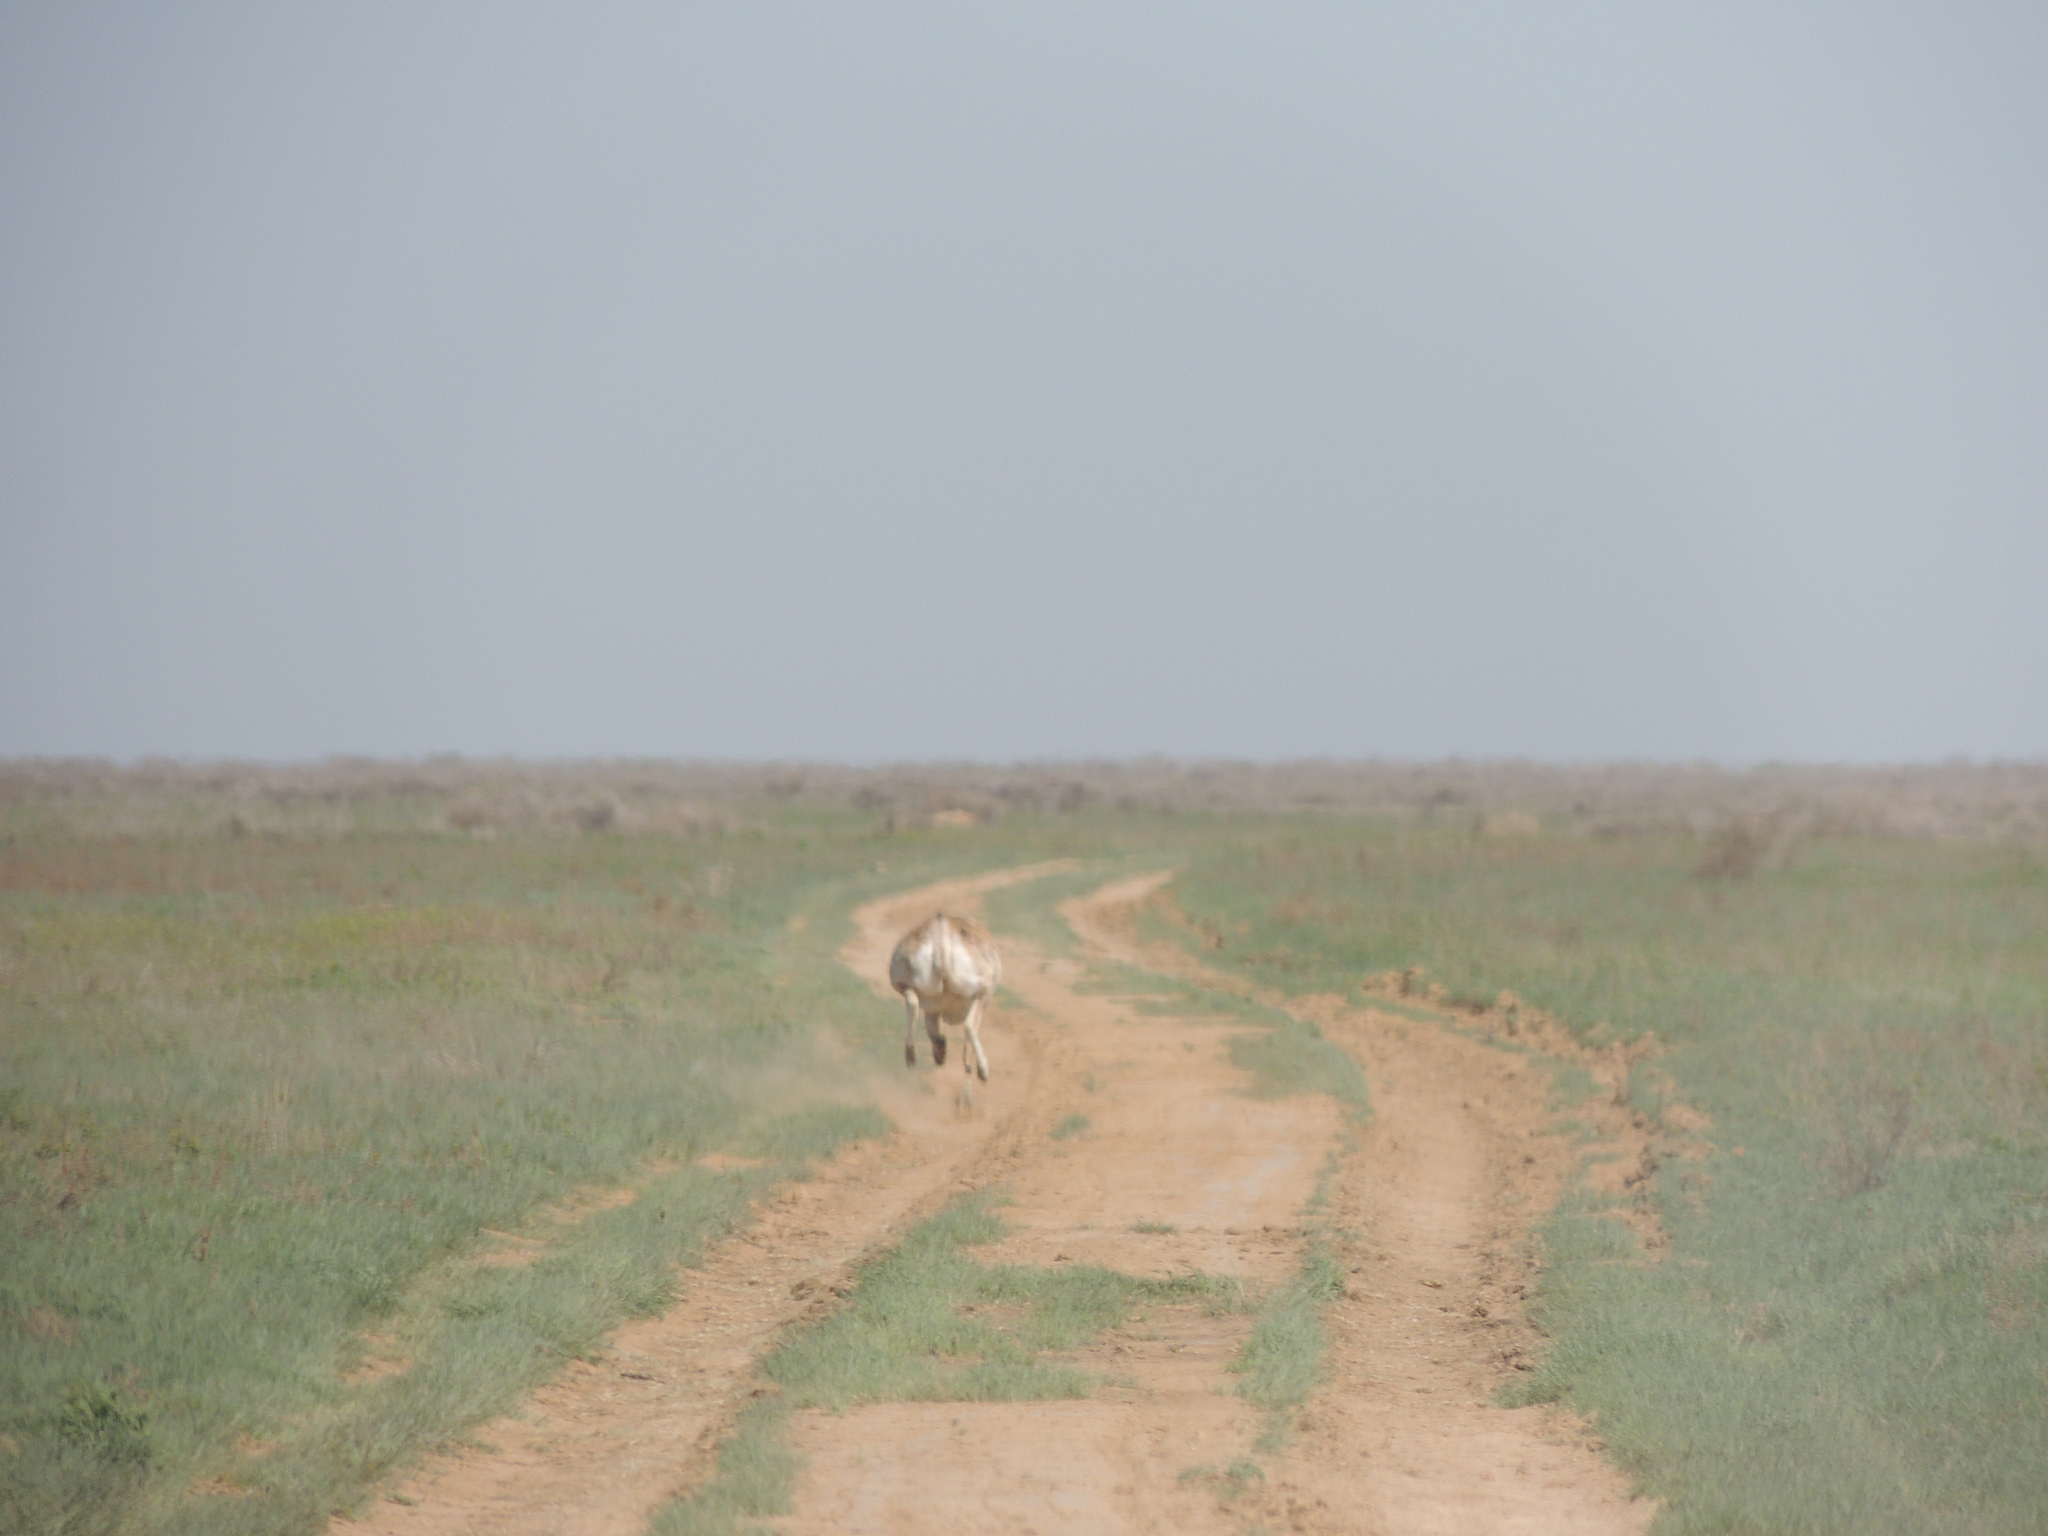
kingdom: Animalia
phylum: Chordata
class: Mammalia
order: Artiodactyla
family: Bovidae
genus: Saiga
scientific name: Saiga tatarica
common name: Saiga
